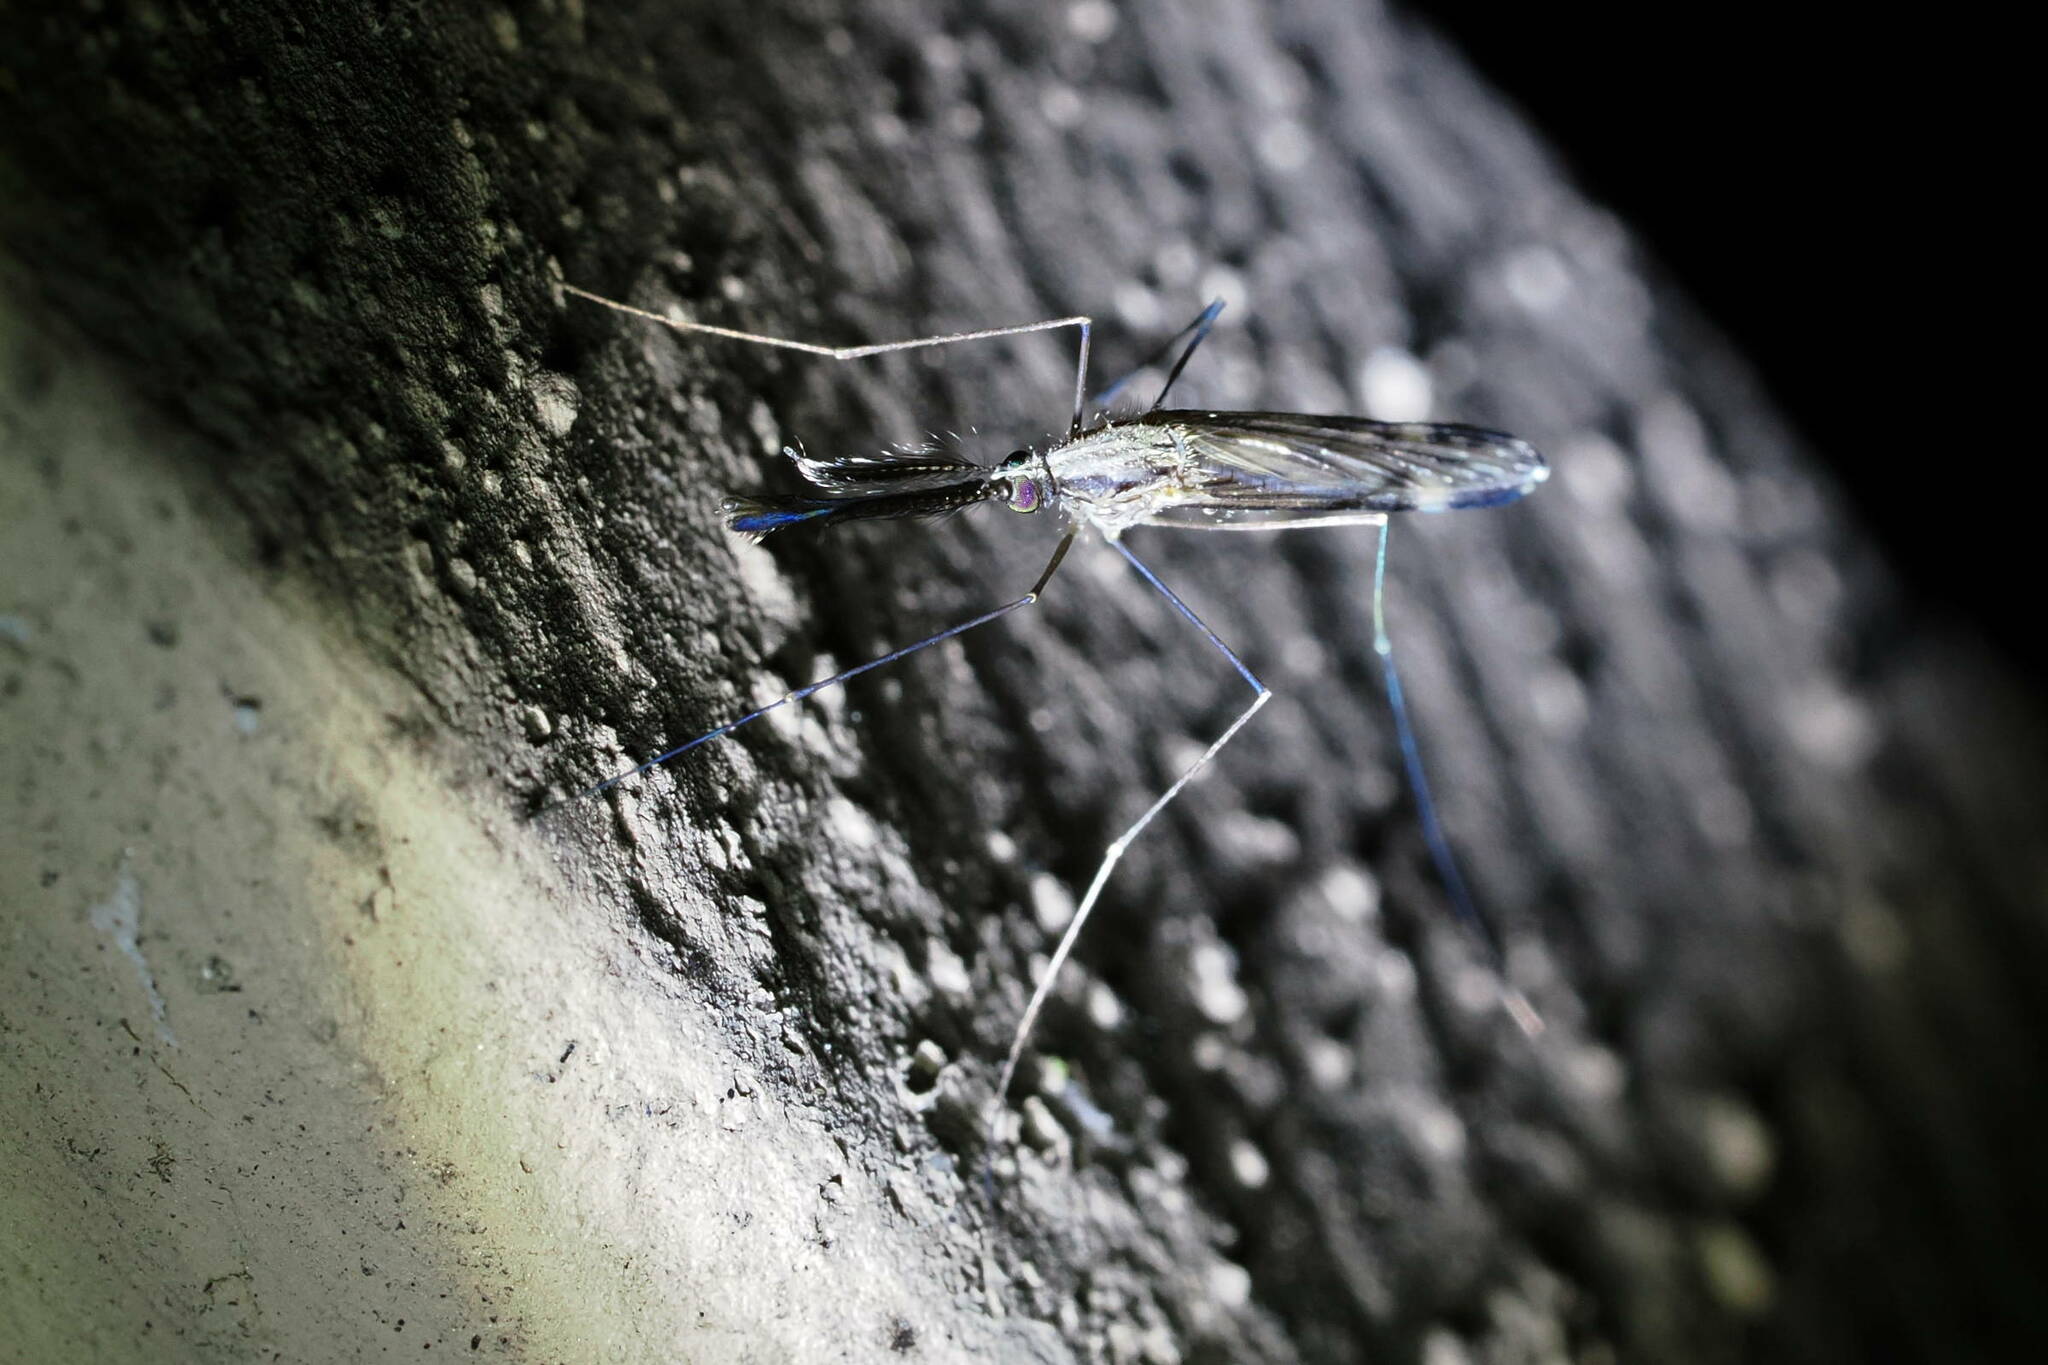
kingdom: Animalia
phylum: Arthropoda
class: Insecta
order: Diptera
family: Culicidae
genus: Anopheles
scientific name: Anopheles punctipennis
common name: Woodland malaria mosquito
